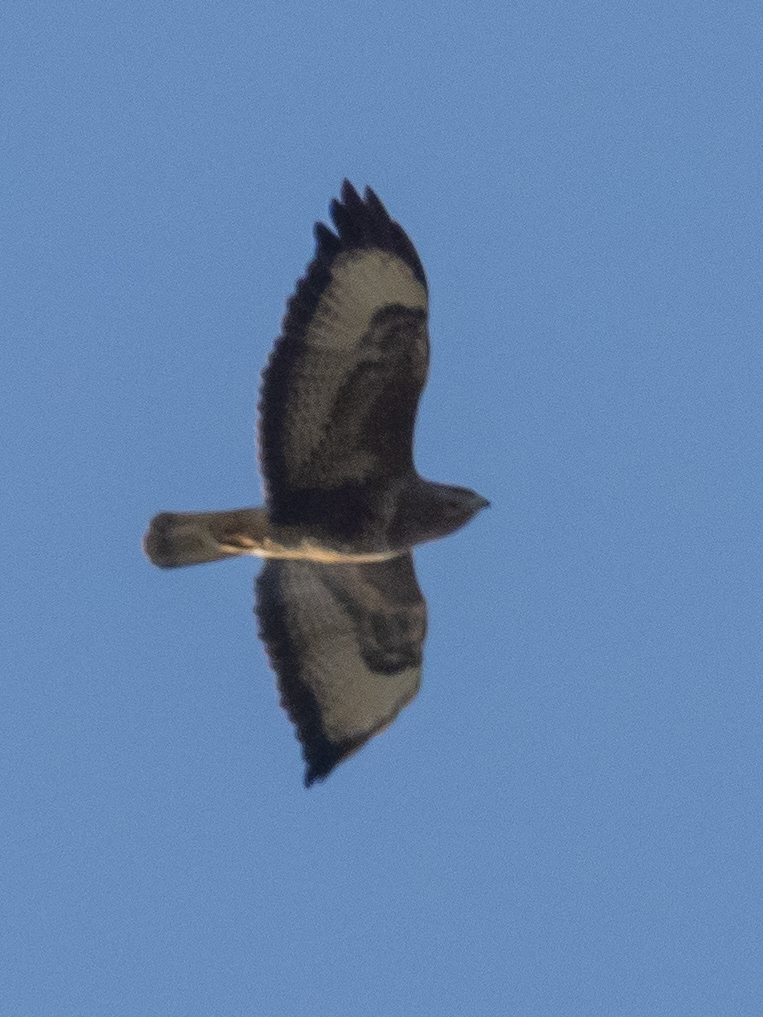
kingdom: Animalia
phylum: Chordata
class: Aves
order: Accipitriformes
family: Accipitridae
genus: Buteo
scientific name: Buteo buteo
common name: Common buzzard
